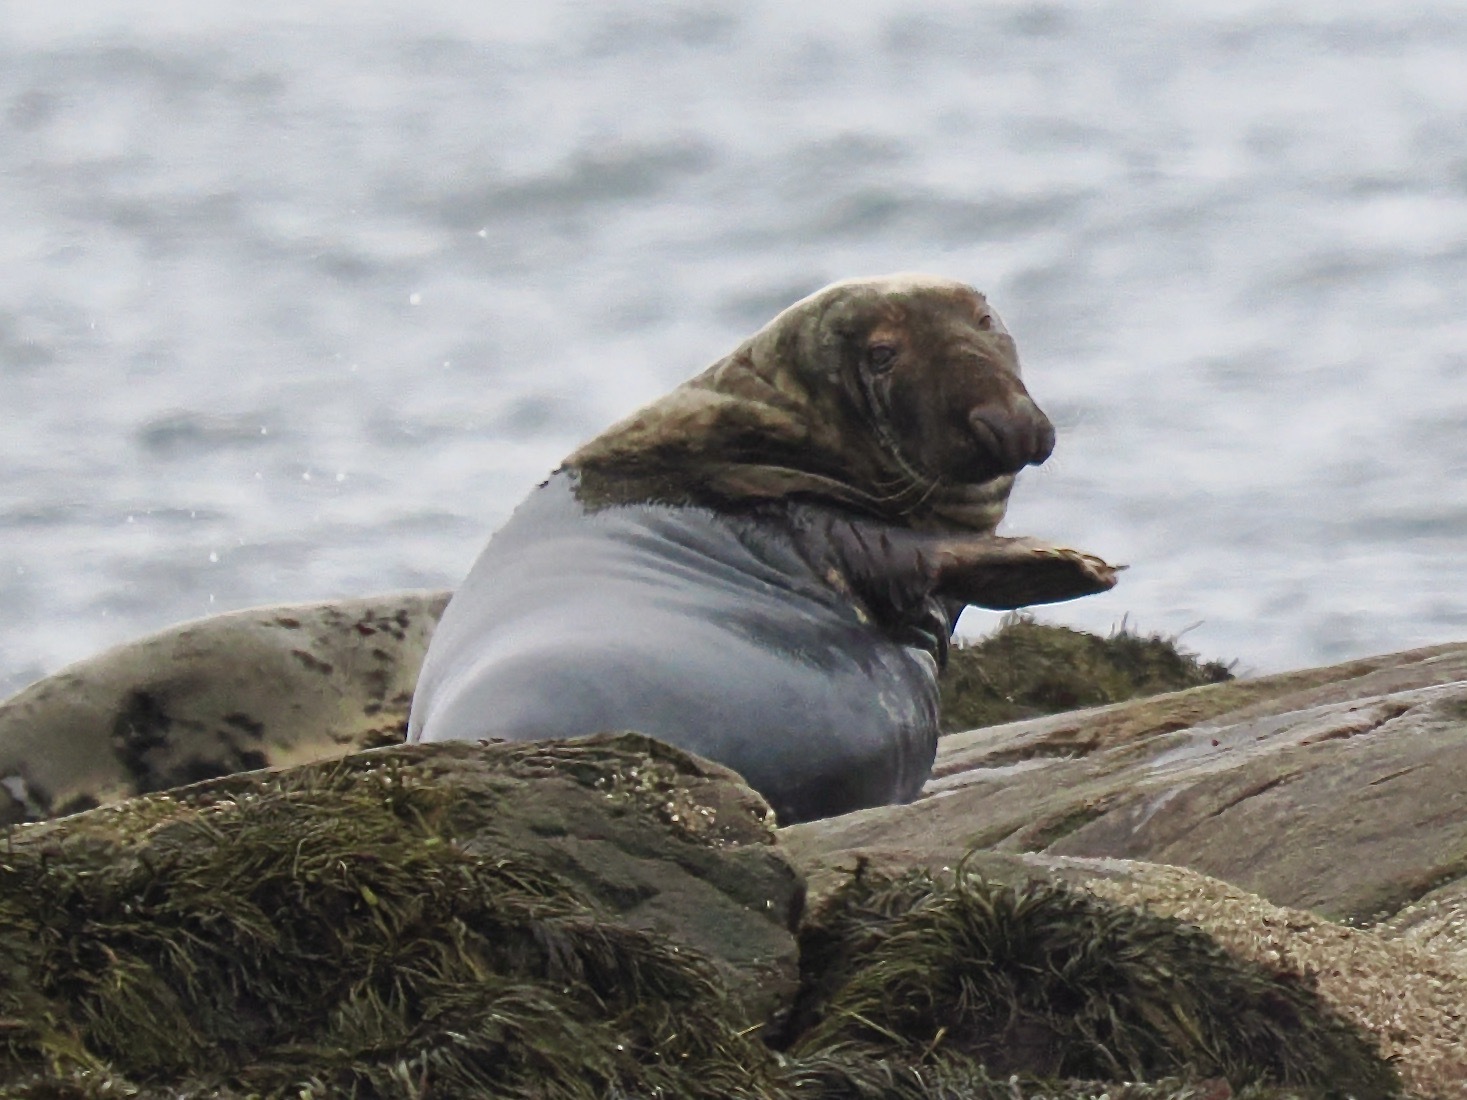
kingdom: Animalia
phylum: Chordata
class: Mammalia
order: Carnivora
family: Phocidae
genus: Halichoerus
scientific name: Halichoerus grypus
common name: Grey seal
